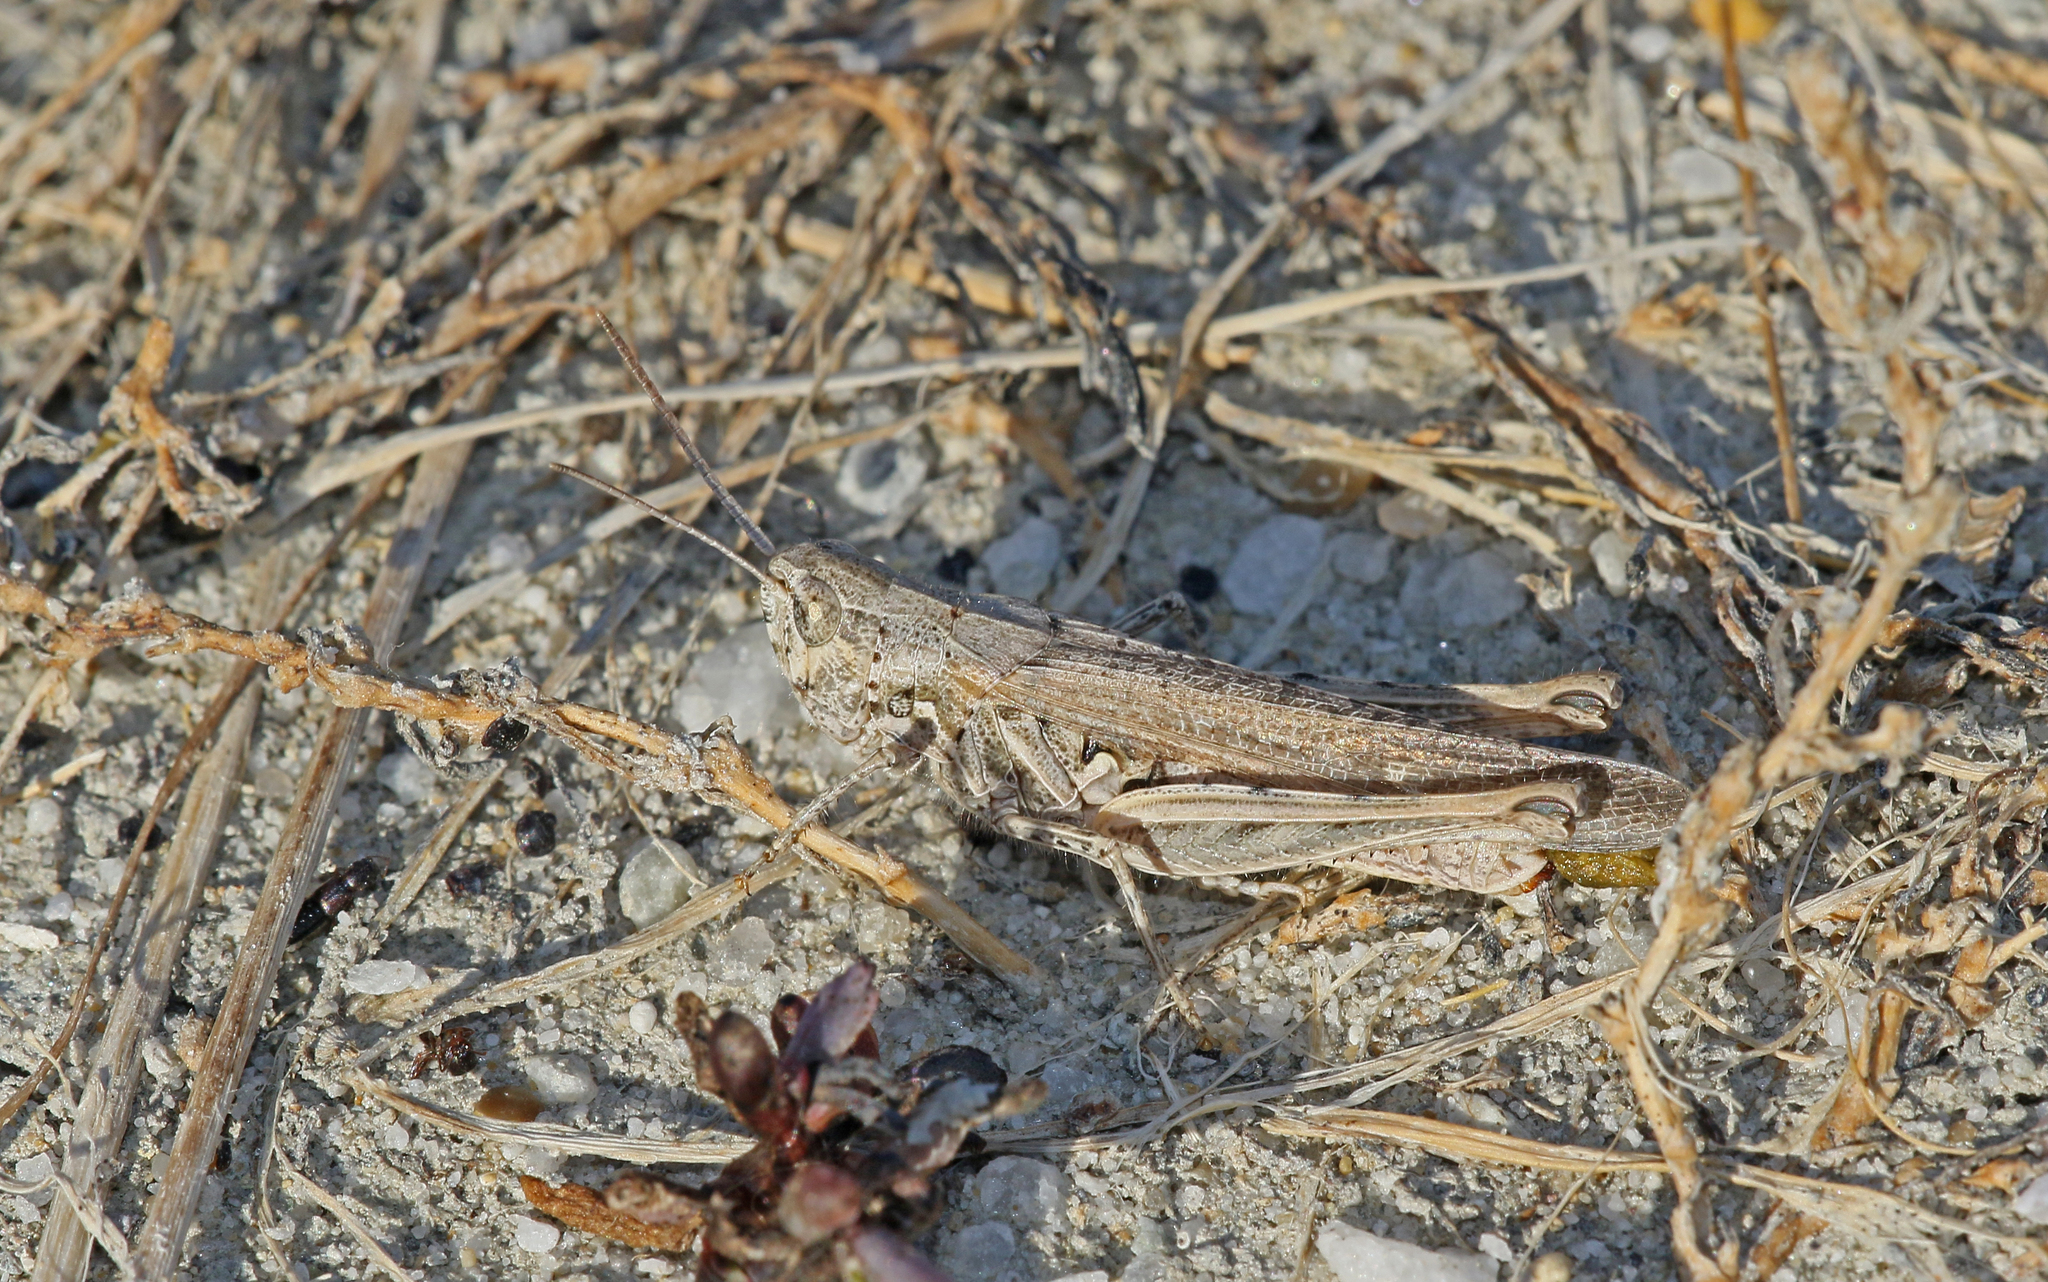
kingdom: Animalia
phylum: Arthropoda
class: Insecta
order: Orthoptera
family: Acrididae
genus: Chorthippus
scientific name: Chorthippus brunneus
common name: Field grasshopper
